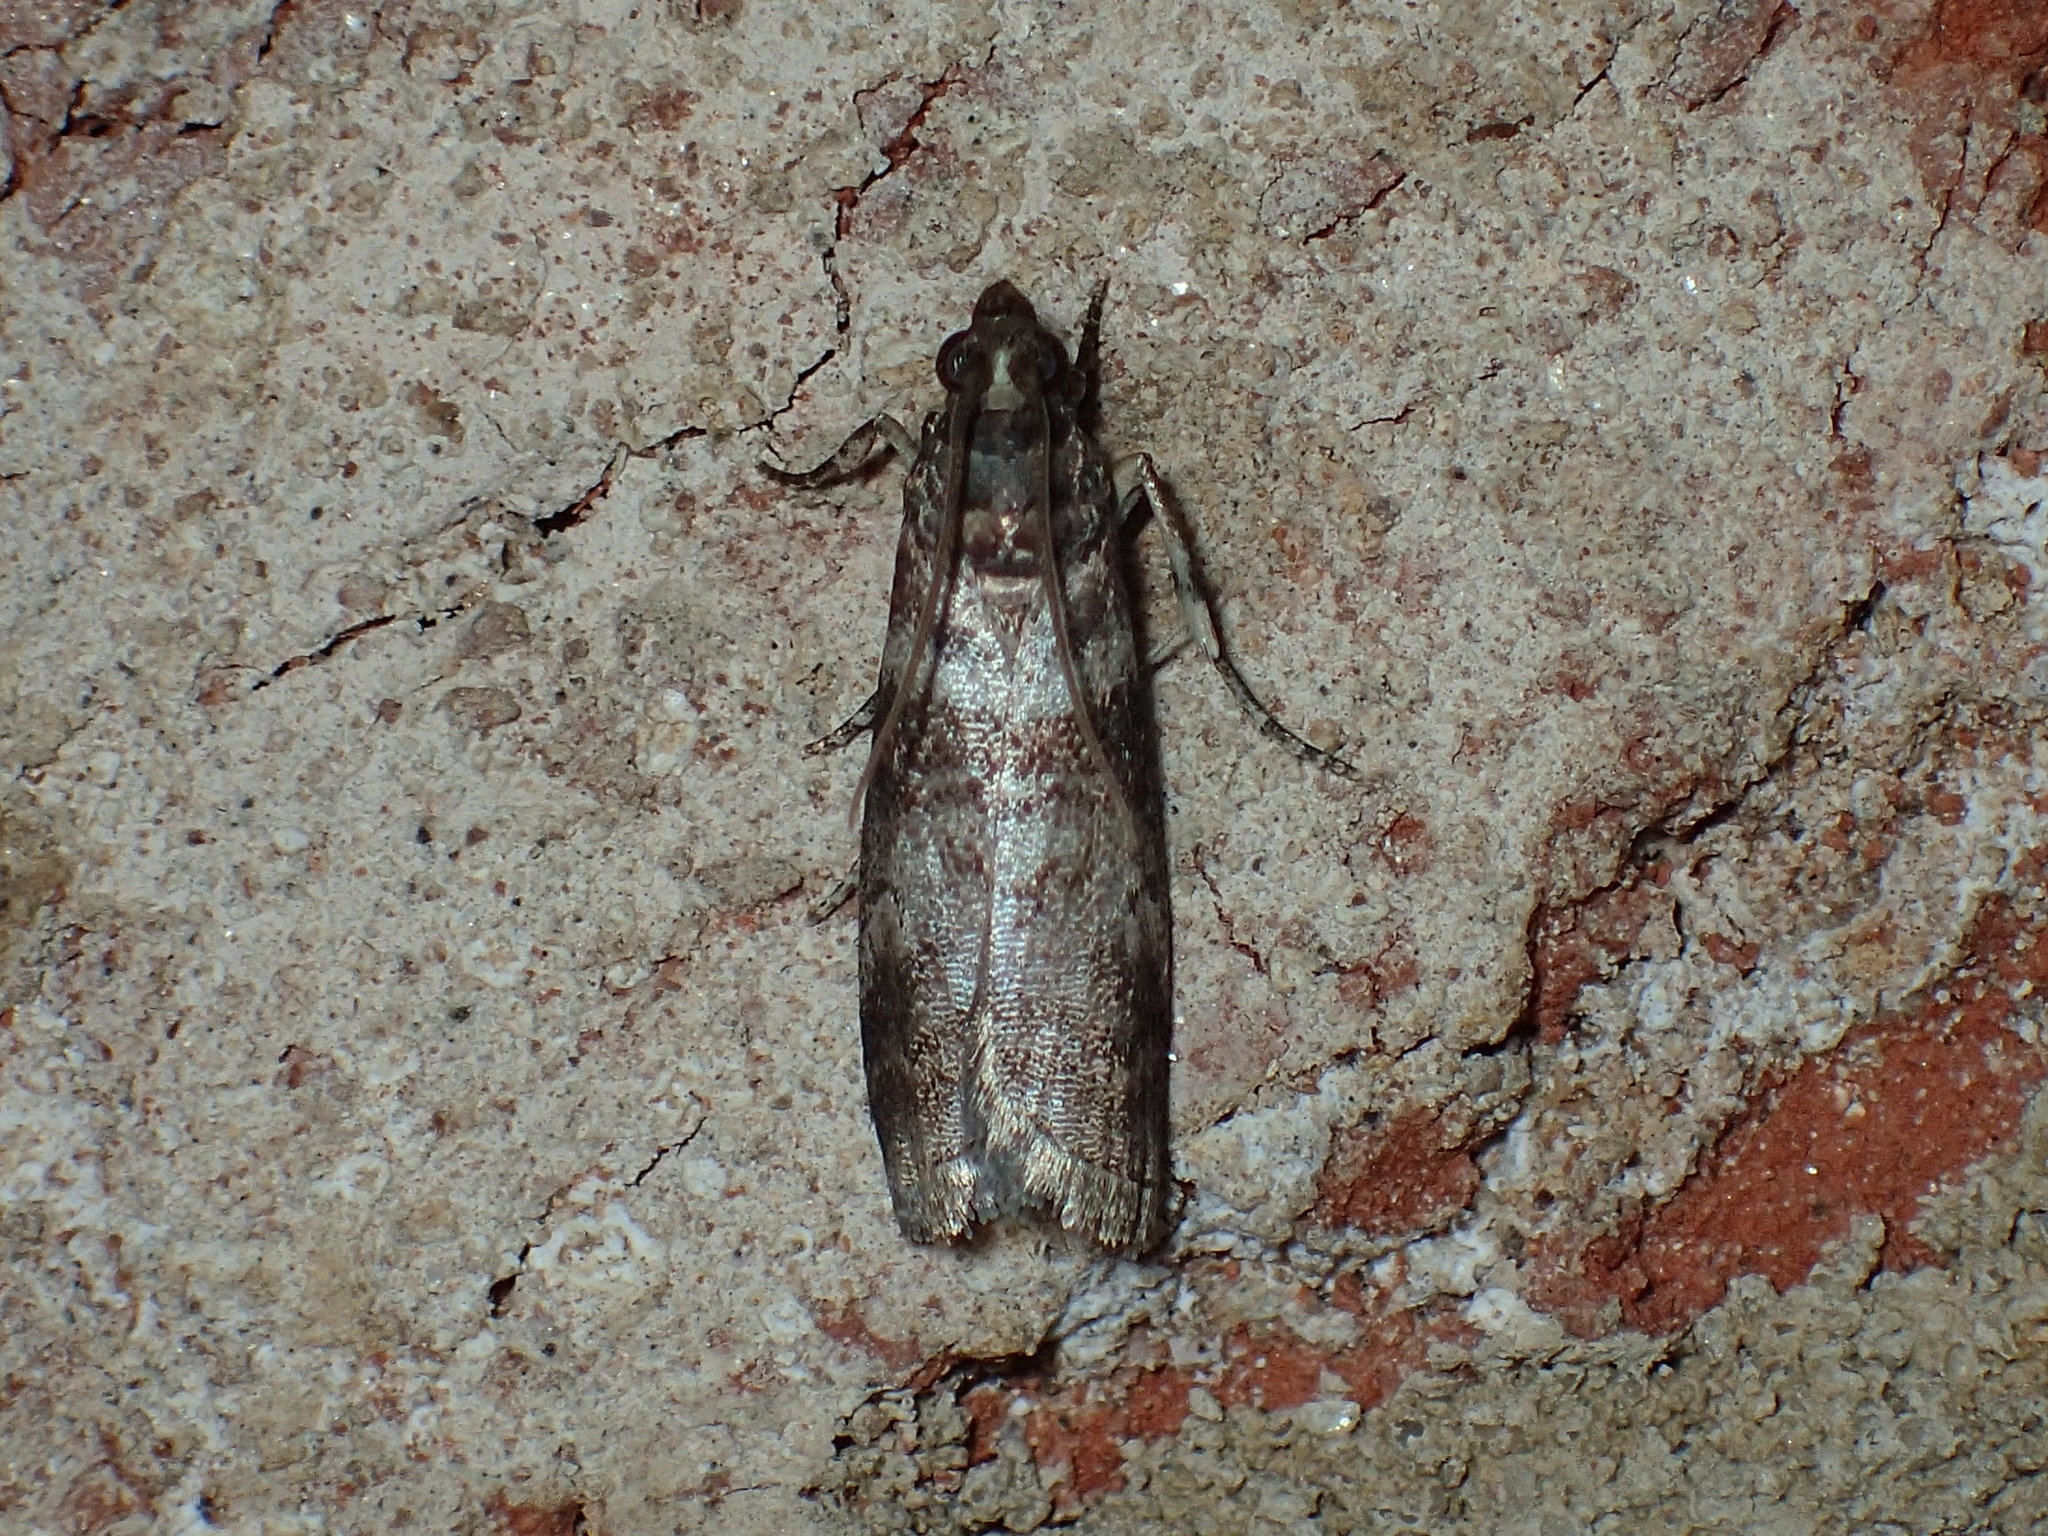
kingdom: Animalia
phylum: Arthropoda
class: Insecta
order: Lepidoptera
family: Pyralidae
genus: Sciota
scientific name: Sciota uvinella
